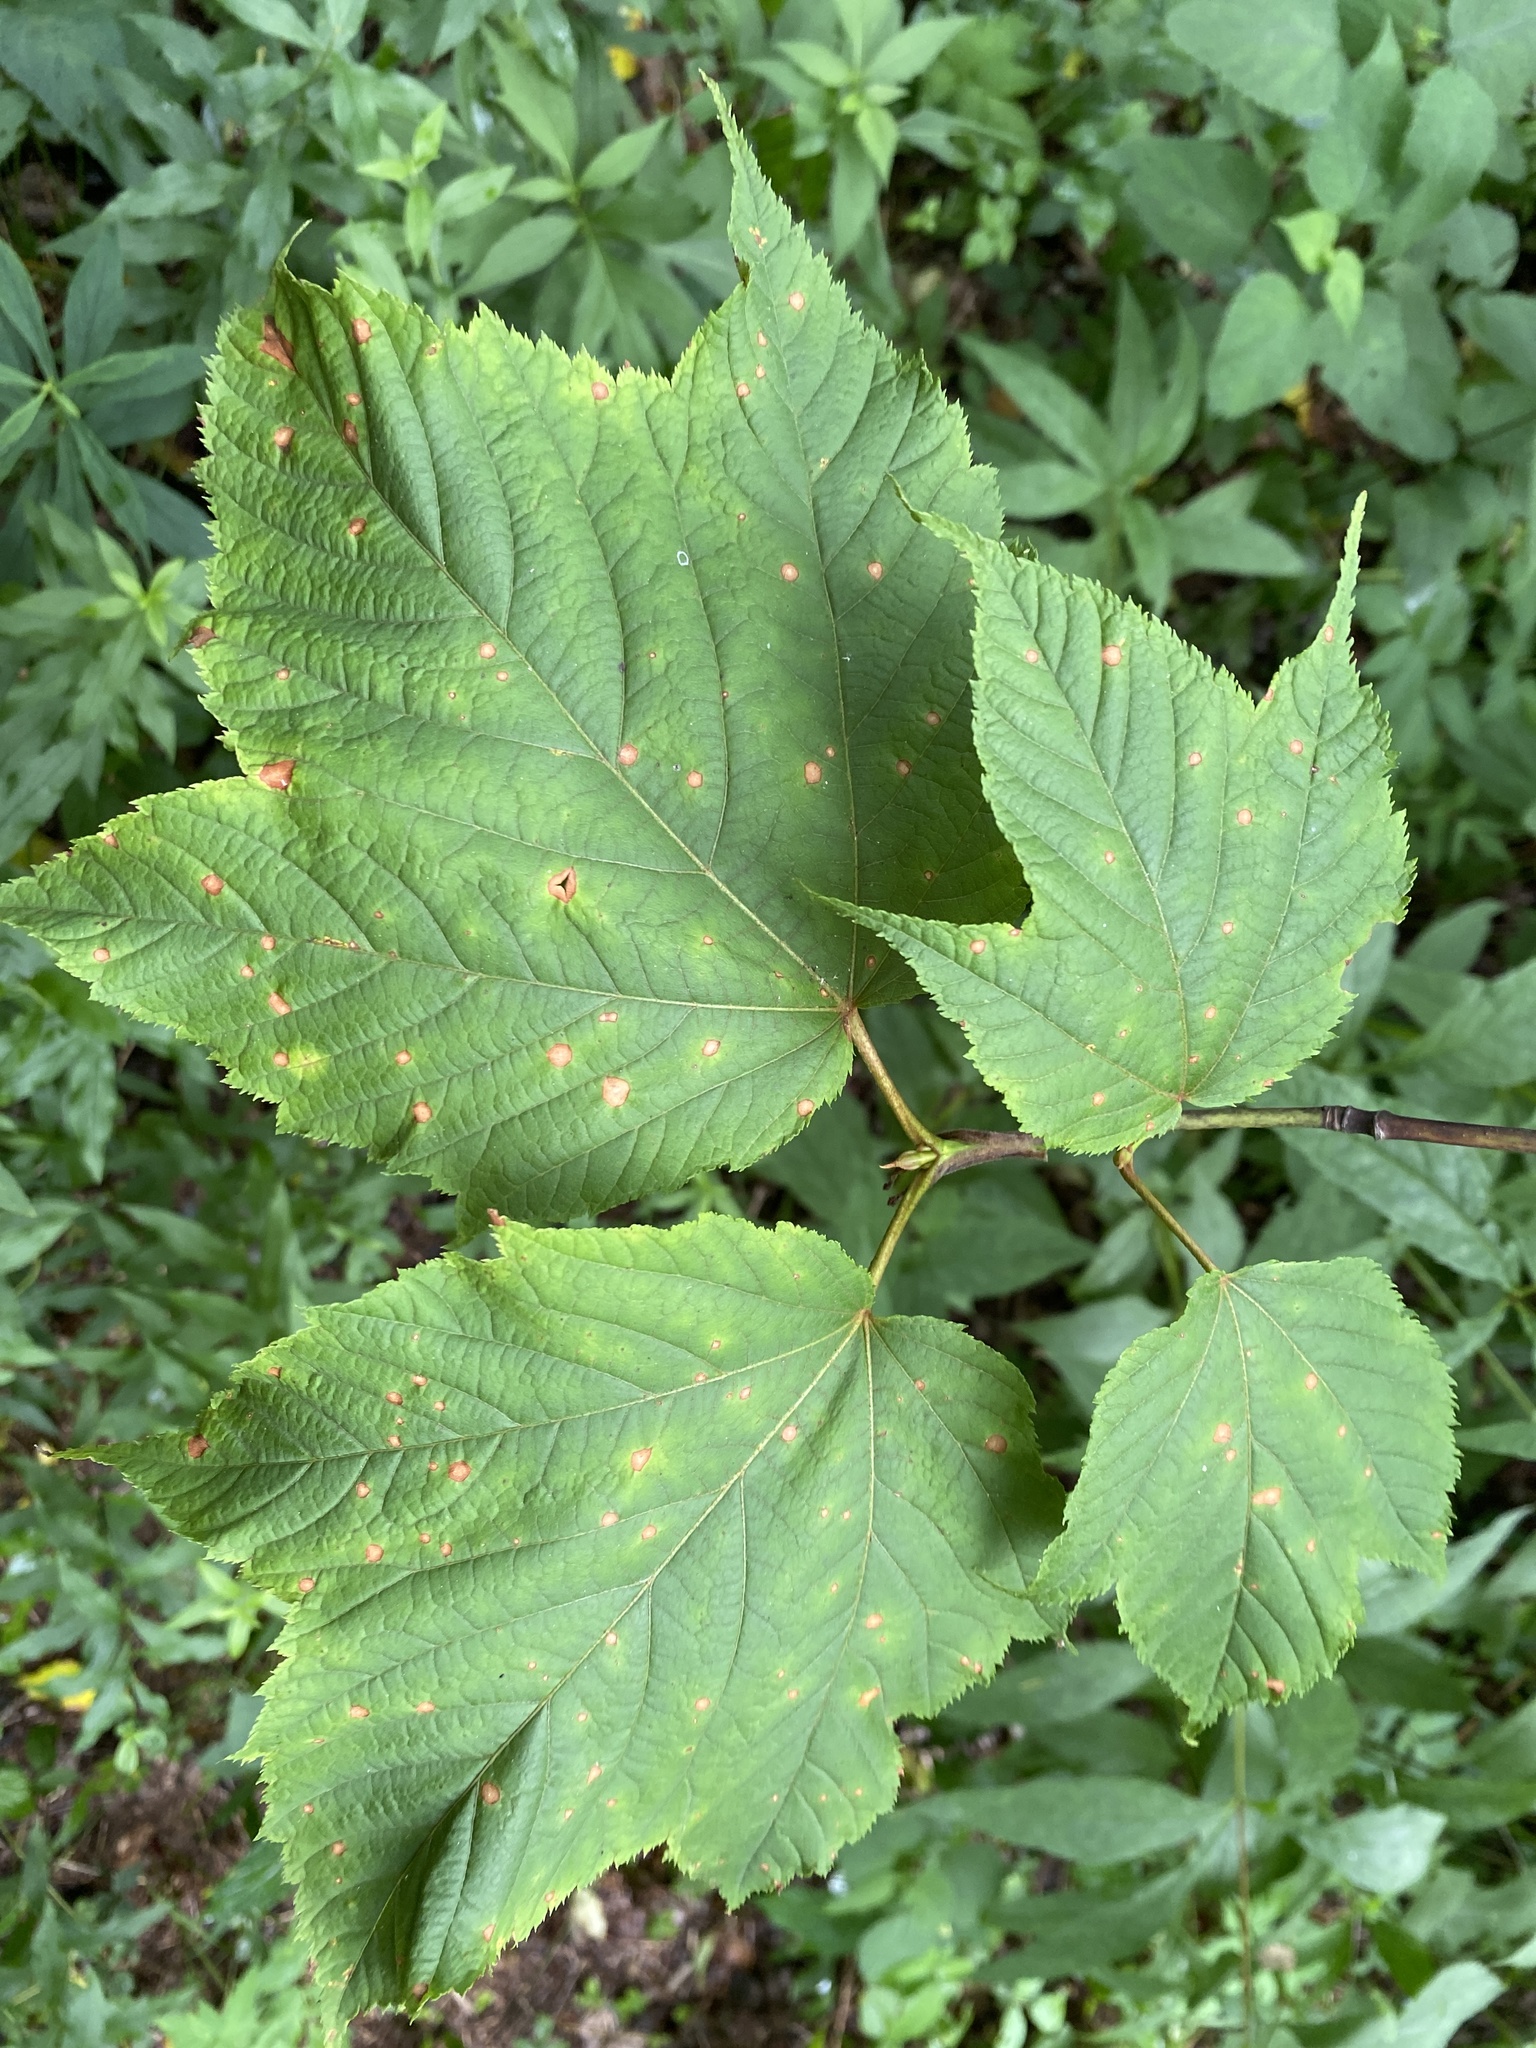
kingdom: Plantae
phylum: Tracheophyta
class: Magnoliopsida
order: Sapindales
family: Sapindaceae
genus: Acer
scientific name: Acer pensylvanicum
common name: Moosewood
